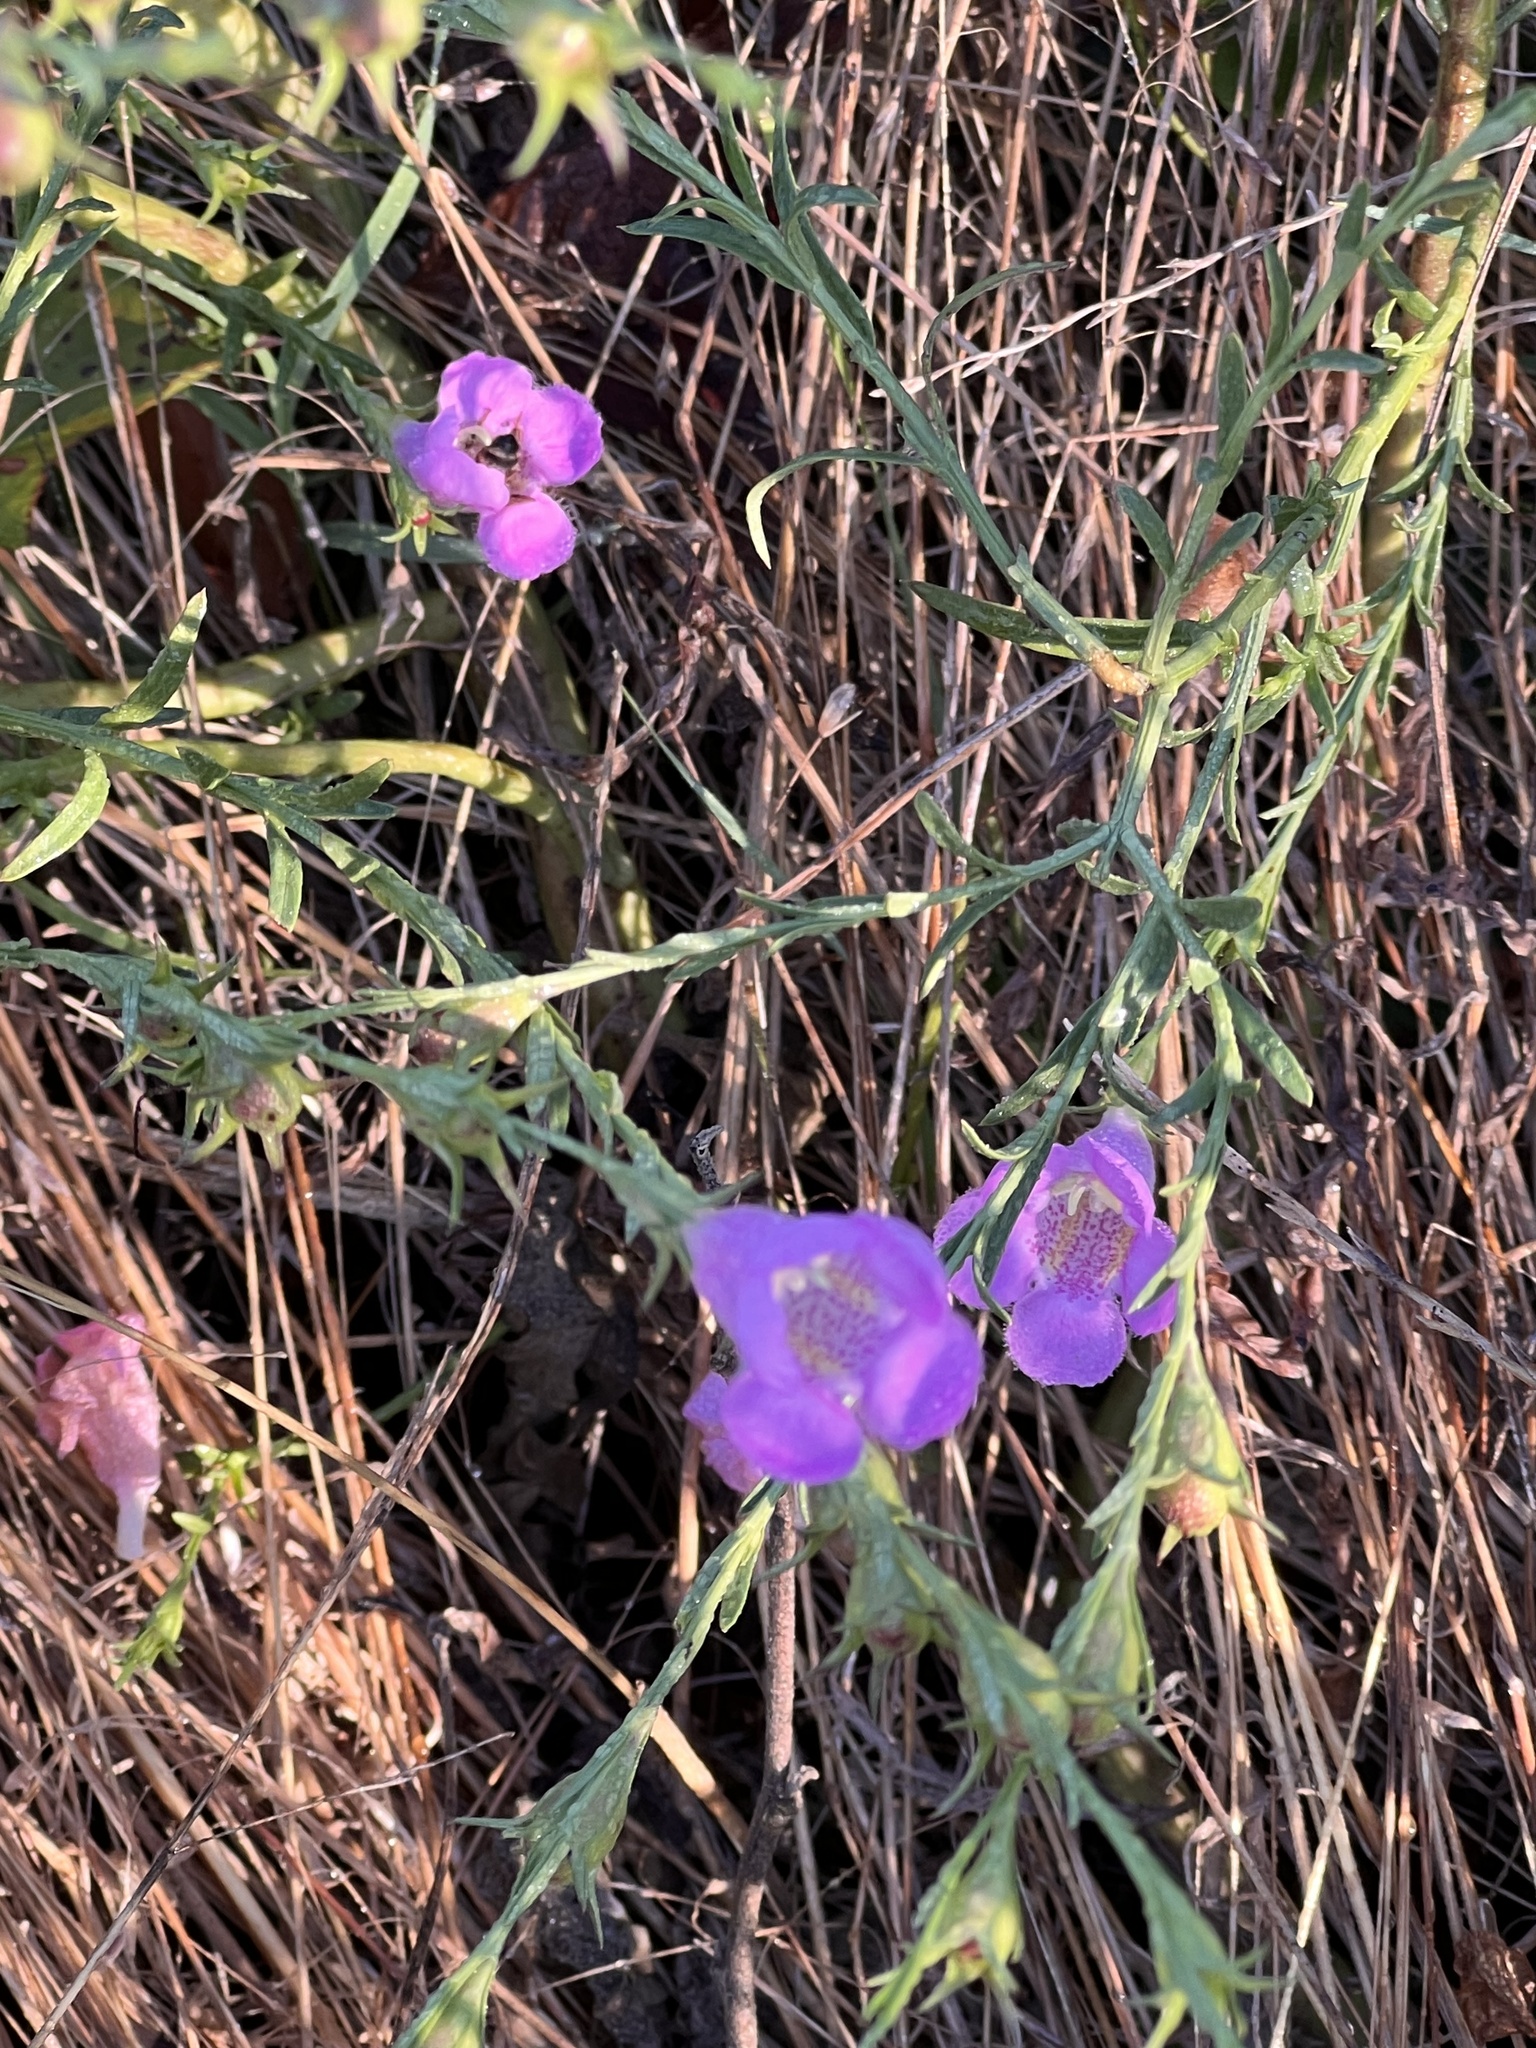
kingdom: Plantae
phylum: Tracheophyta
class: Magnoliopsida
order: Lamiales
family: Orobanchaceae
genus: Agalinis
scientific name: Agalinis heterophylla
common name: Prairie agalinis
